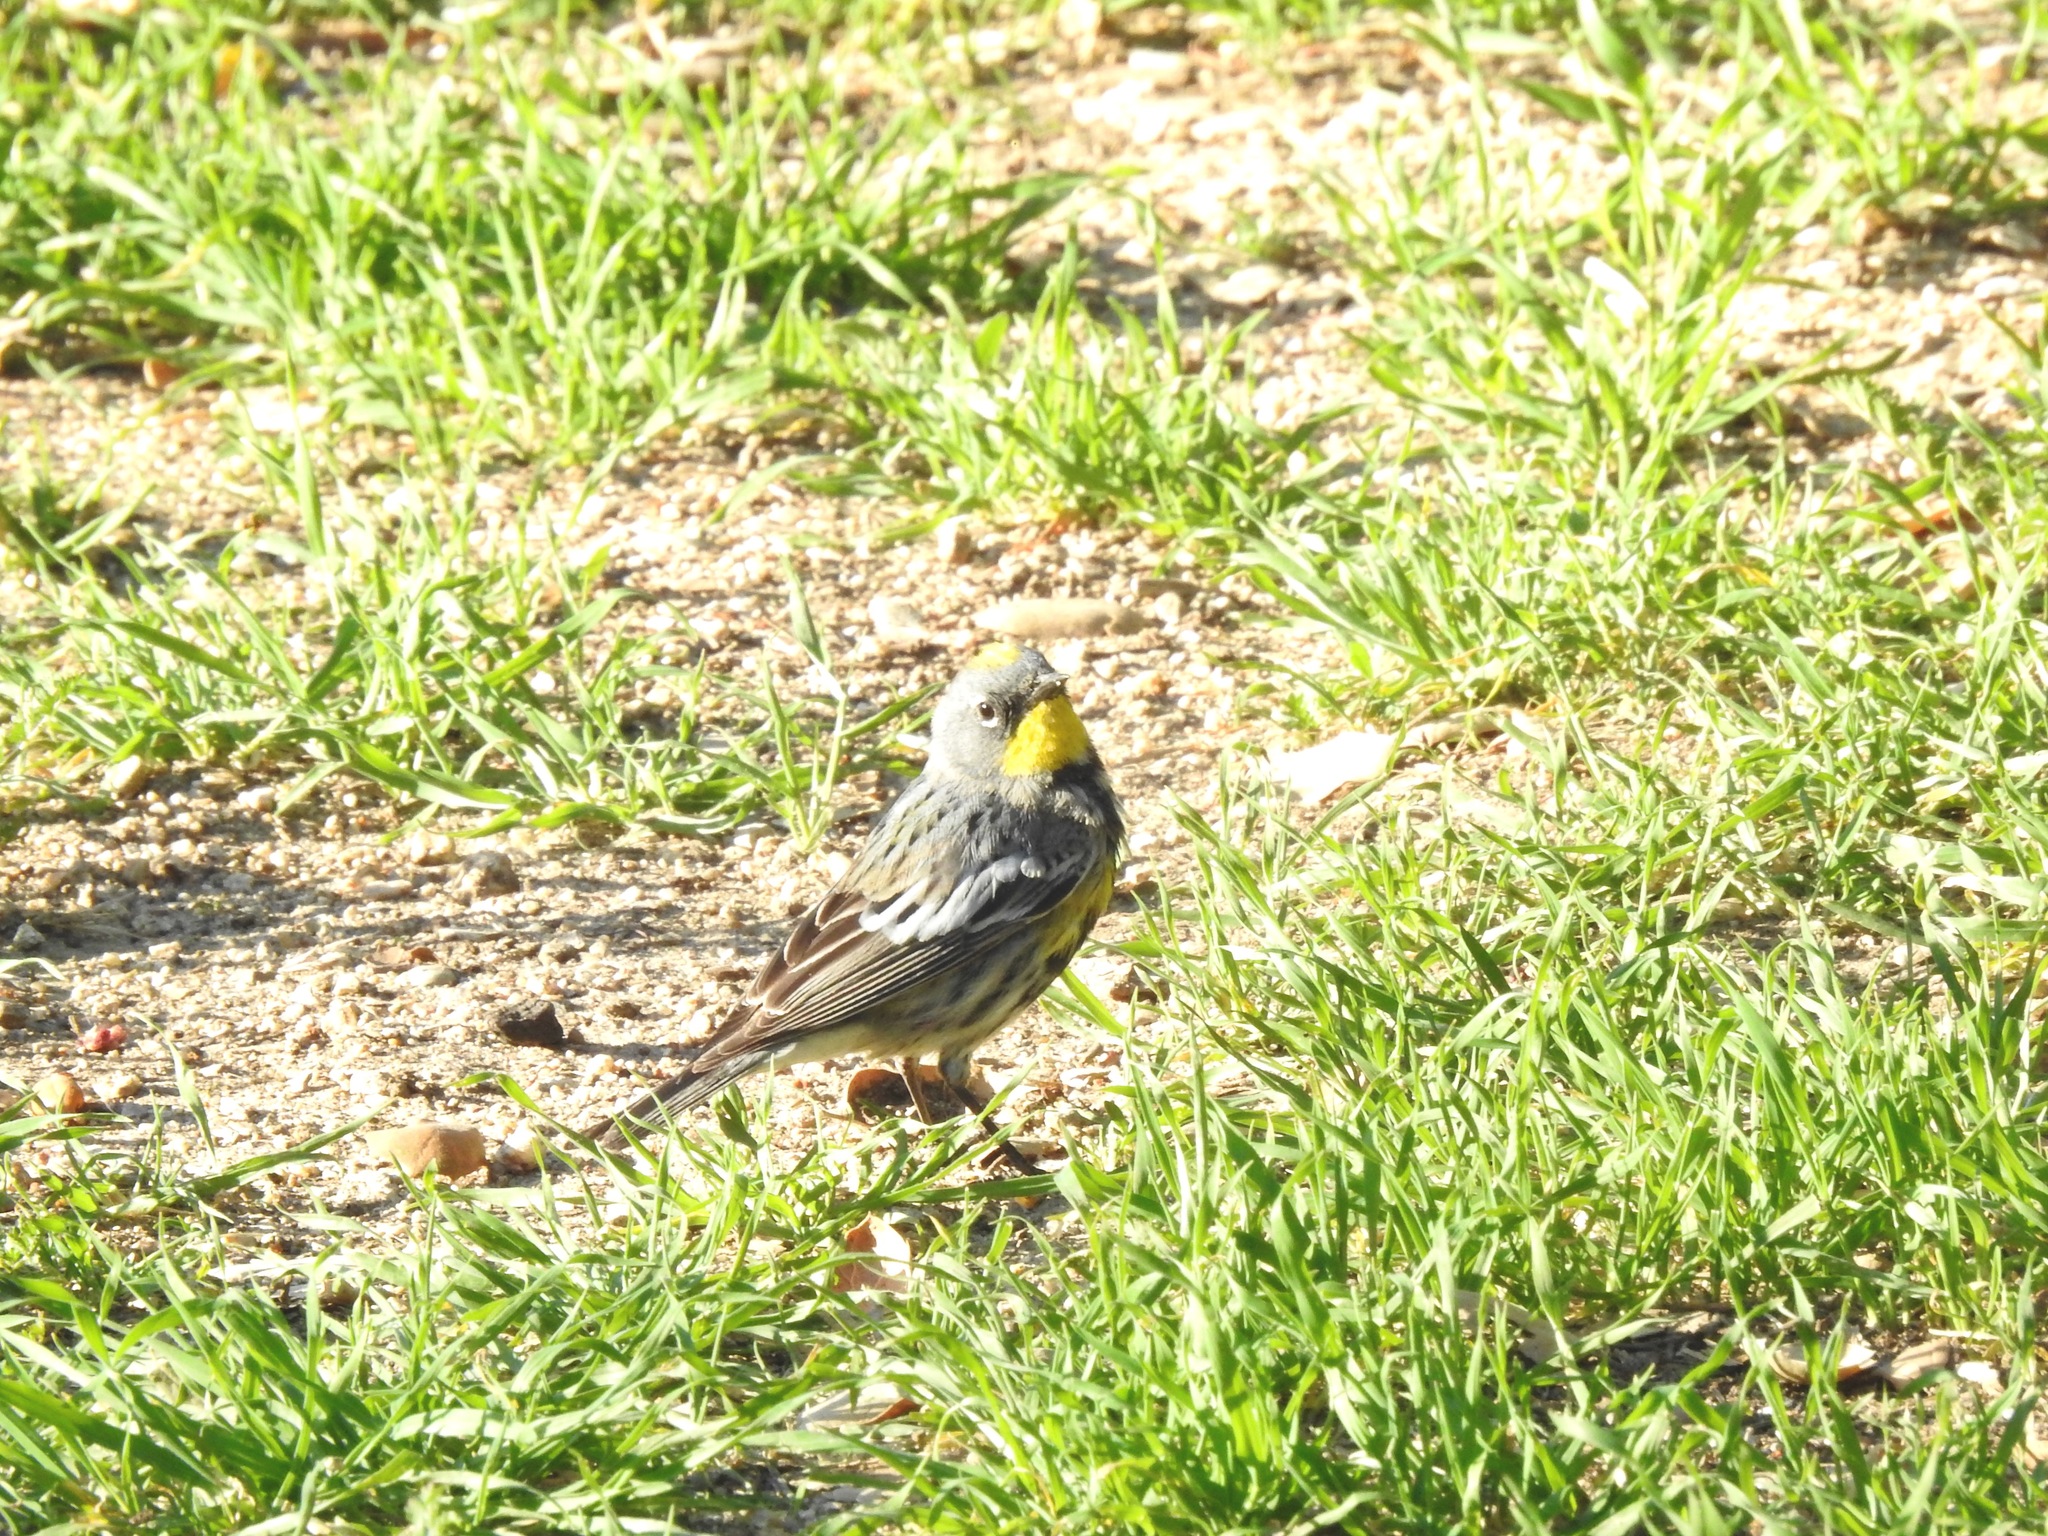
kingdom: Animalia
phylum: Chordata
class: Aves
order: Passeriformes
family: Parulidae
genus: Setophaga
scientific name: Setophaga auduboni
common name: Audubon's warbler
